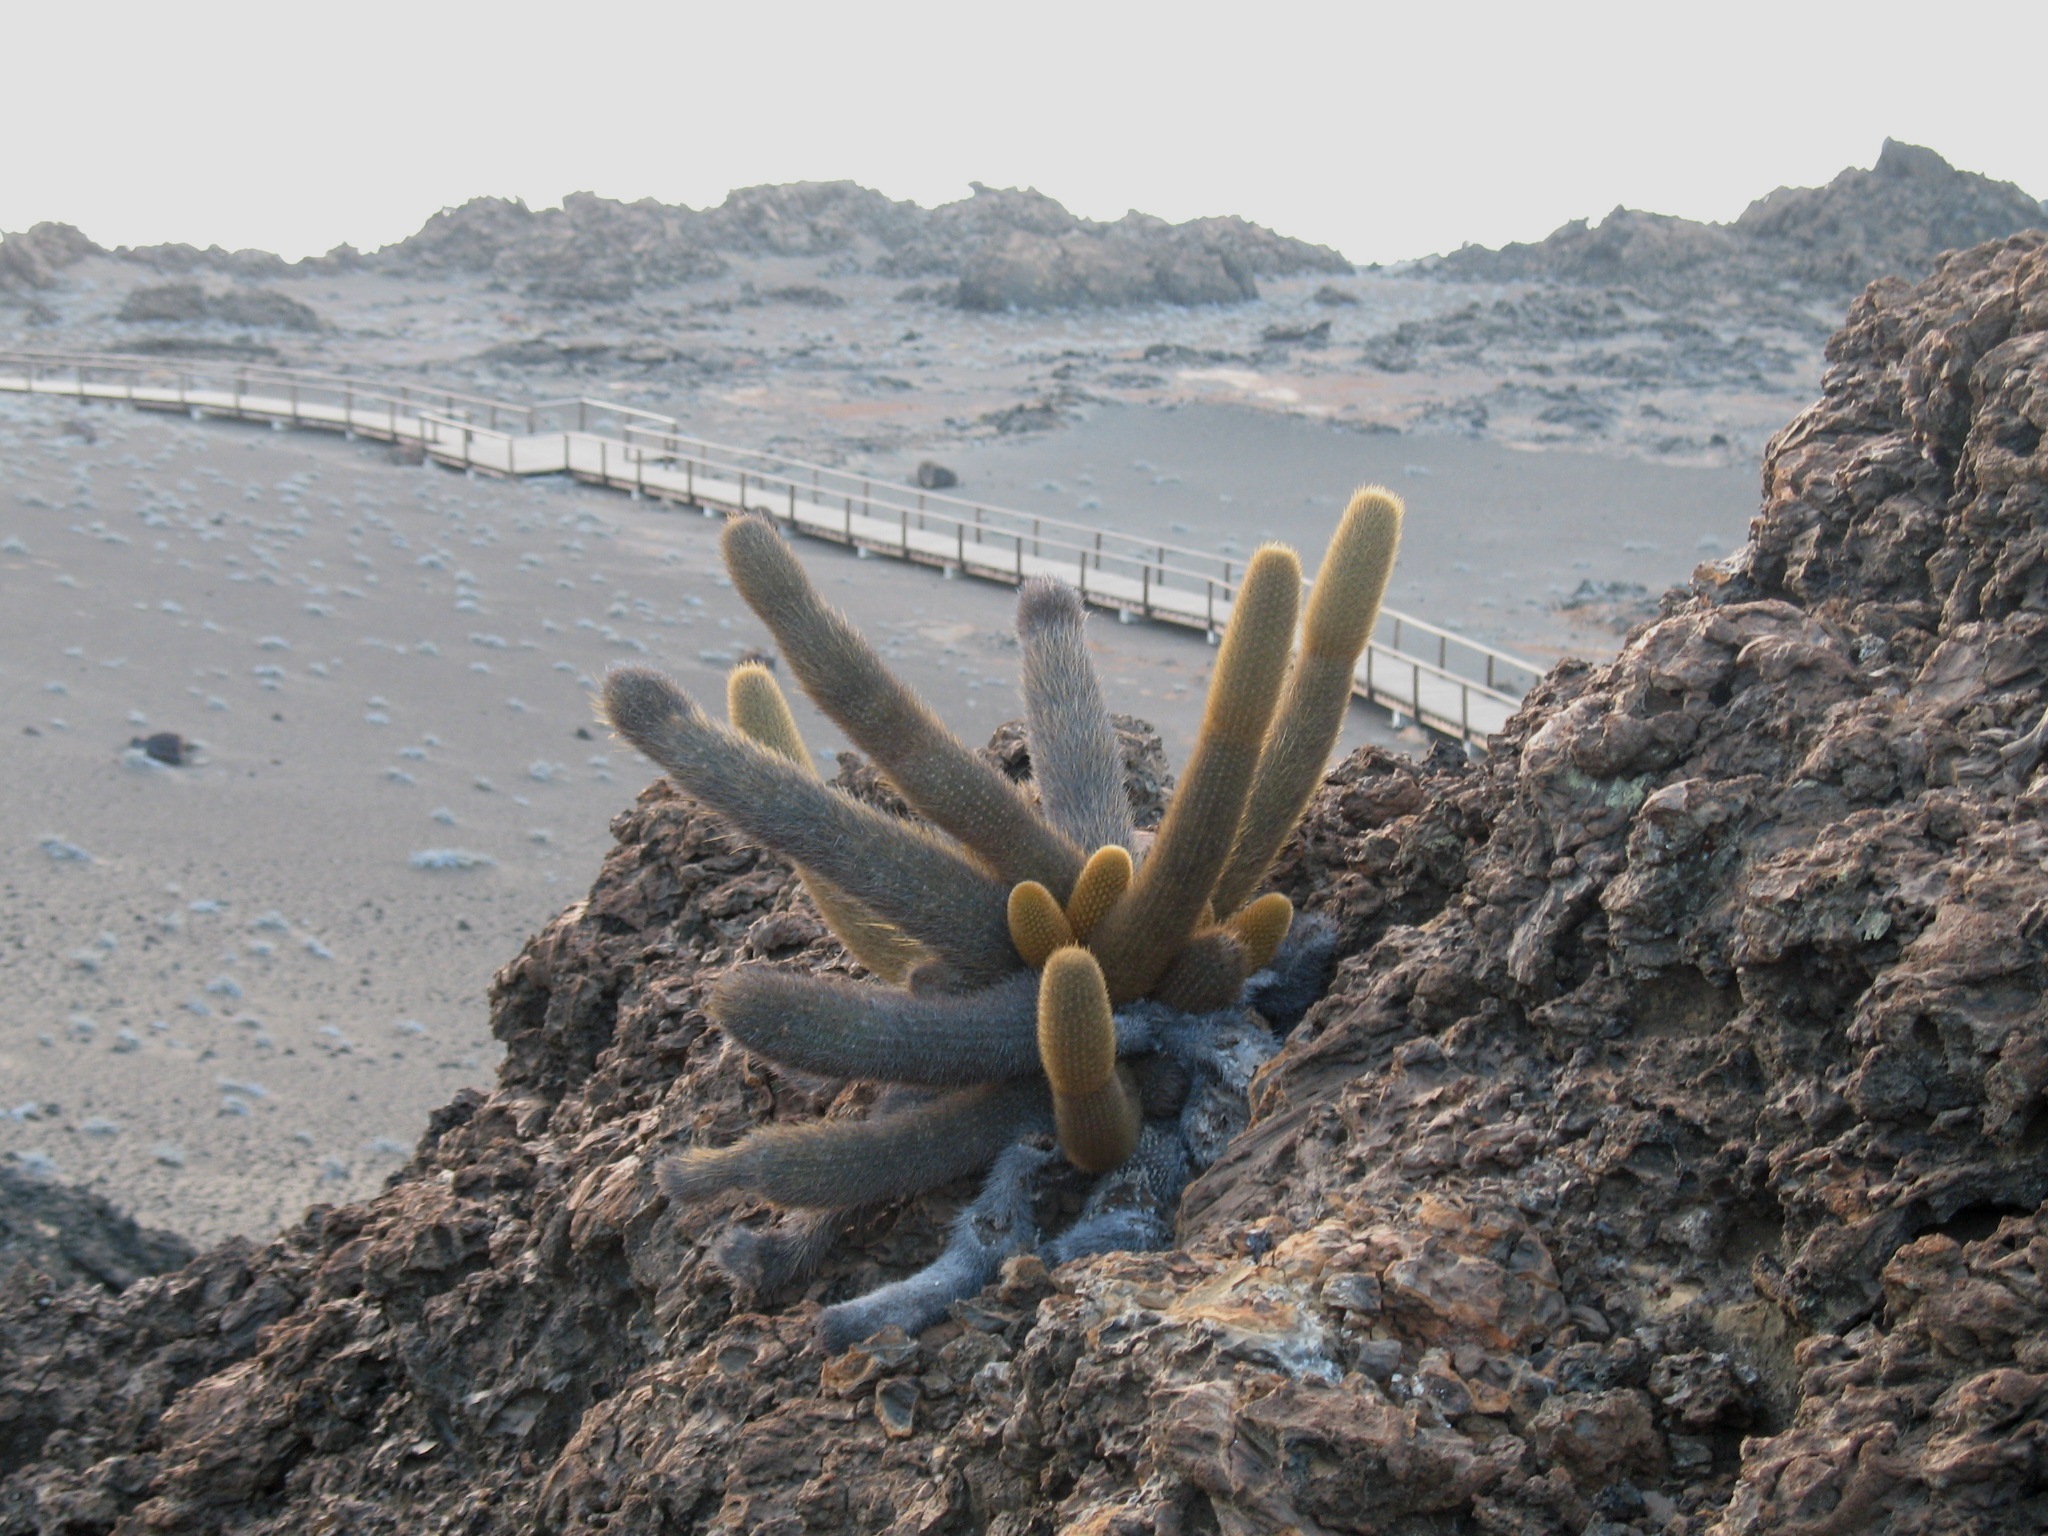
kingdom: Plantae
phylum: Tracheophyta
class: Magnoliopsida
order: Caryophyllales
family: Cactaceae
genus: Brachycereus
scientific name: Brachycereus nesioticus
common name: Lava cactus
